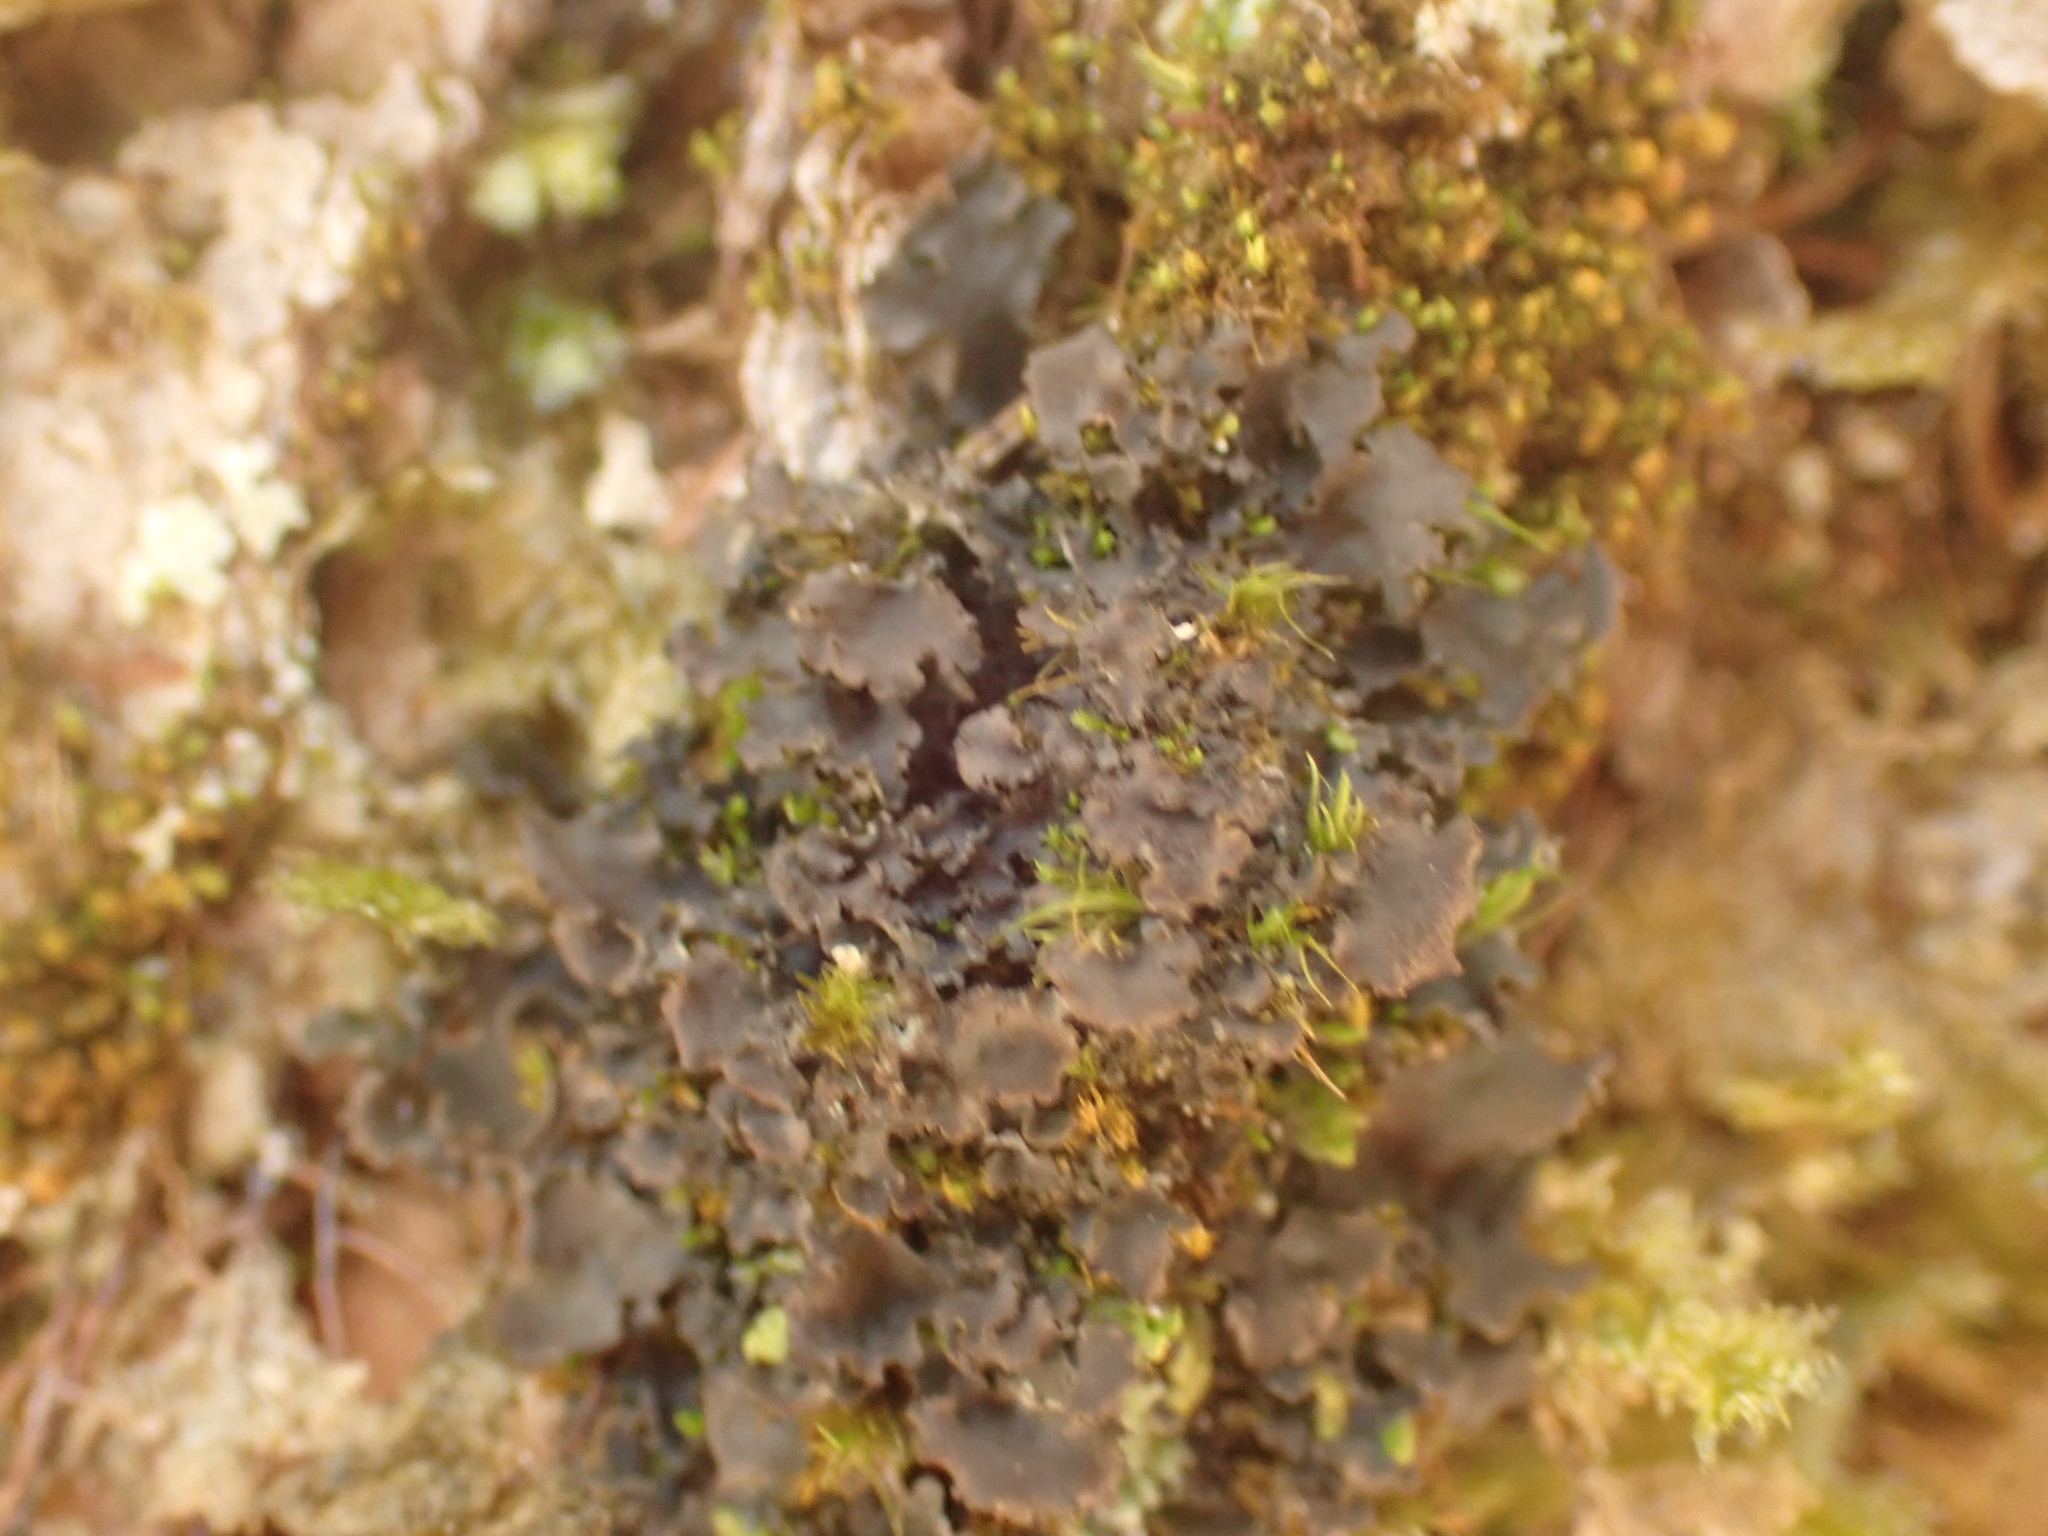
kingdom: Fungi
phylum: Ascomycota
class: Lecanoromycetes
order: Peltigerales
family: Collemataceae
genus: Leptogium
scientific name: Leptogium cyanescens
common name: Blue jellyskin
